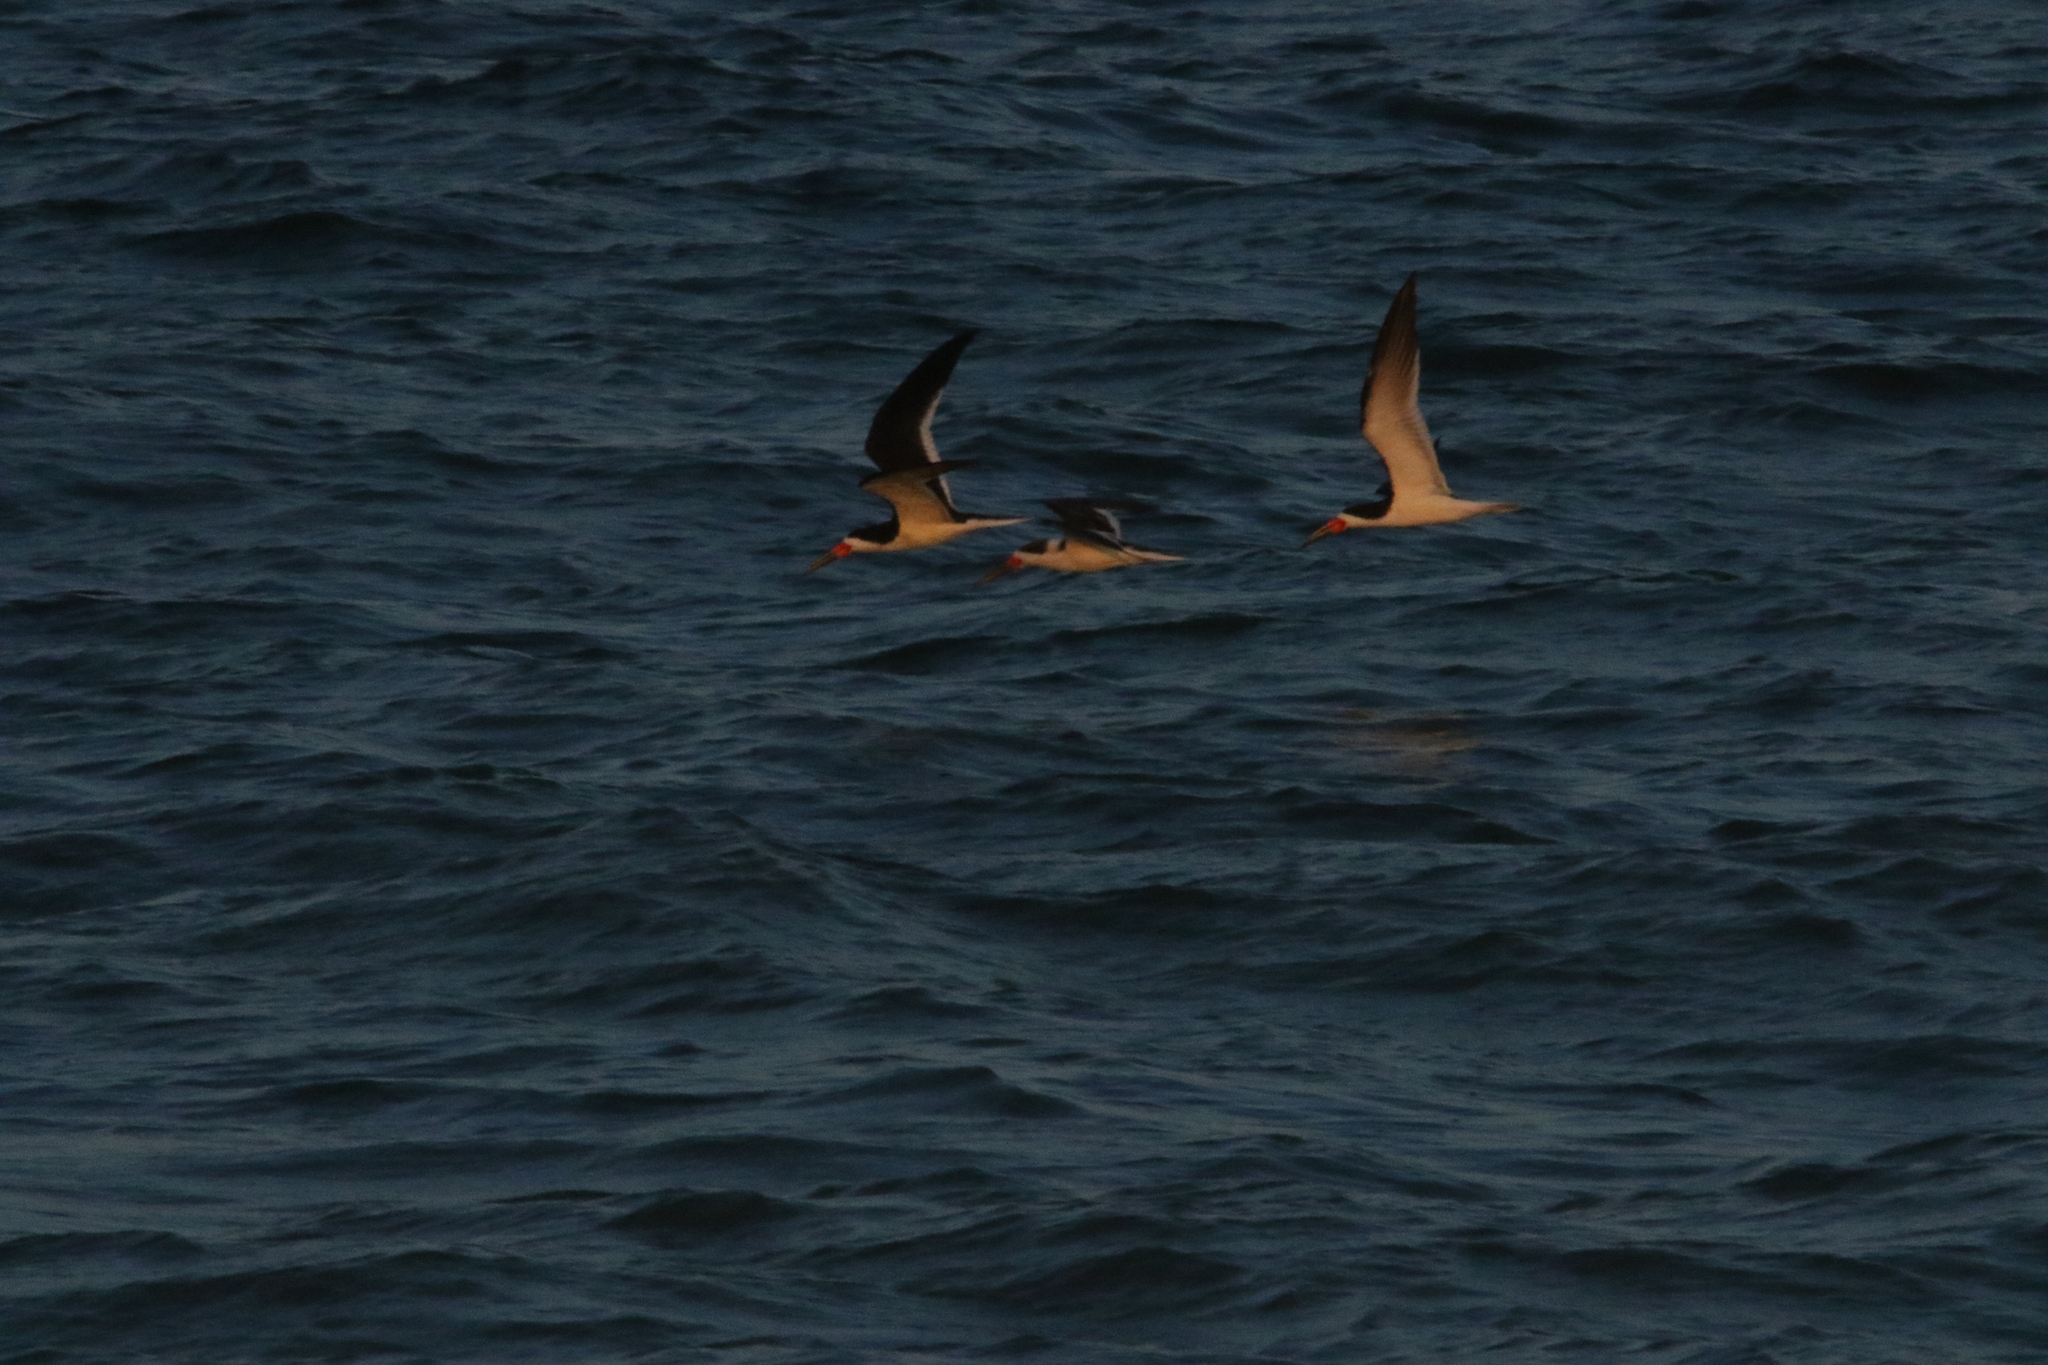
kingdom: Animalia
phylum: Chordata
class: Aves
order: Charadriiformes
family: Laridae
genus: Rynchops
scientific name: Rynchops niger
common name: Black skimmer
